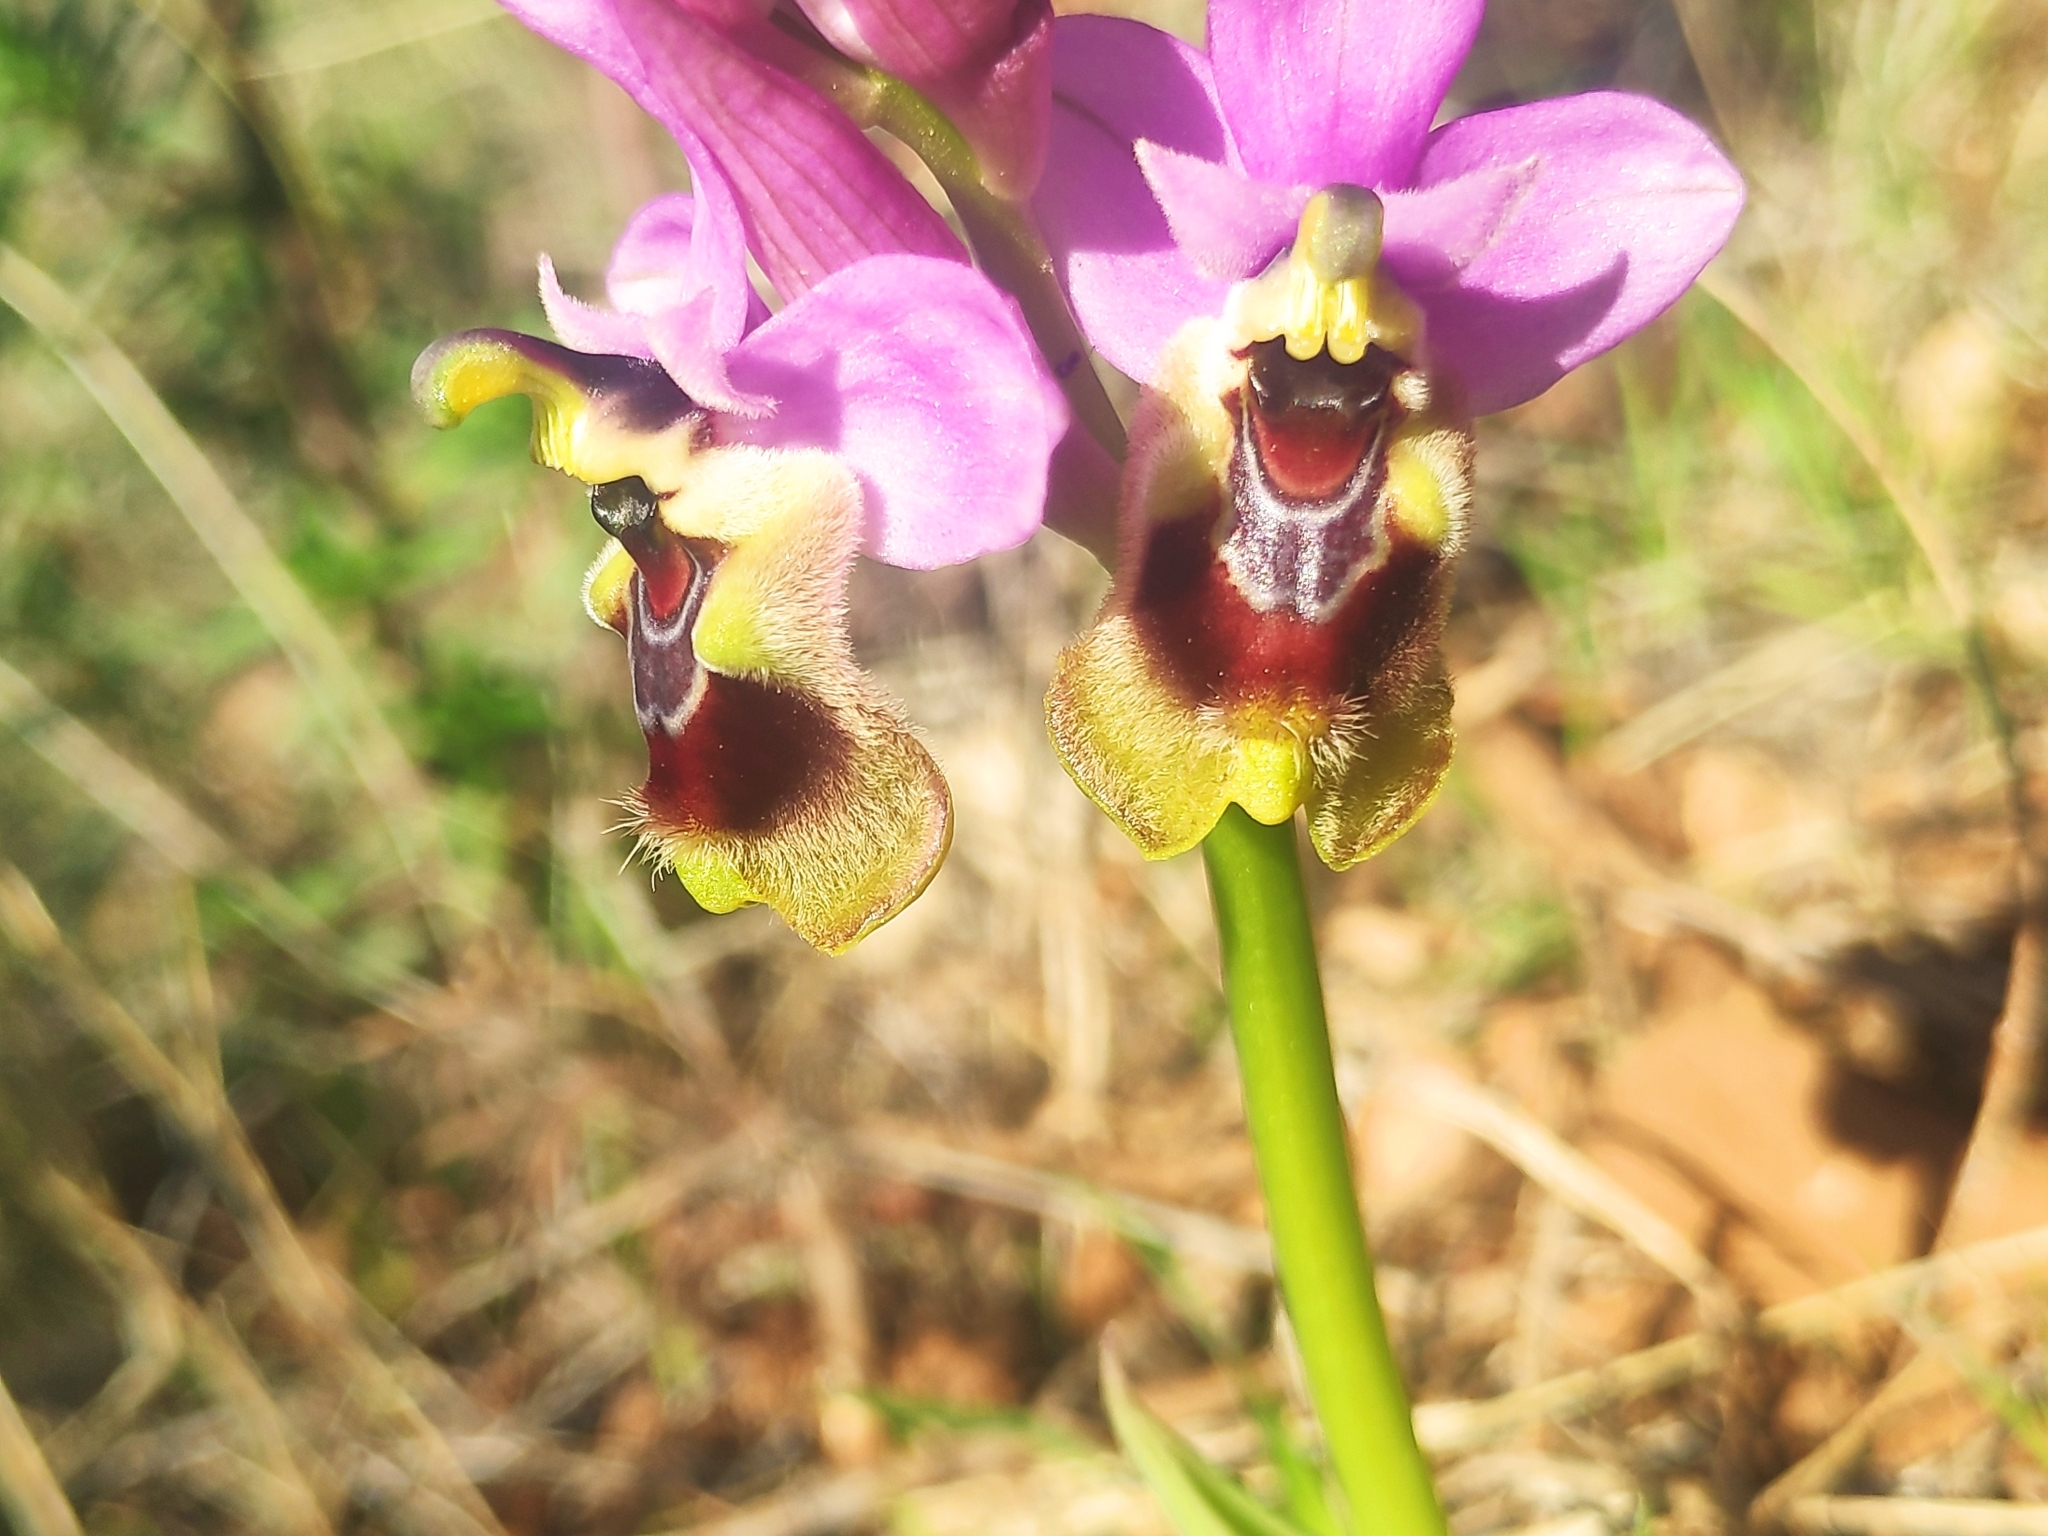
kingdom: Plantae
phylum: Tracheophyta
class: Liliopsida
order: Asparagales
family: Orchidaceae
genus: Ophrys
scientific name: Ophrys tenthredinifera
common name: Sawfly orchid
